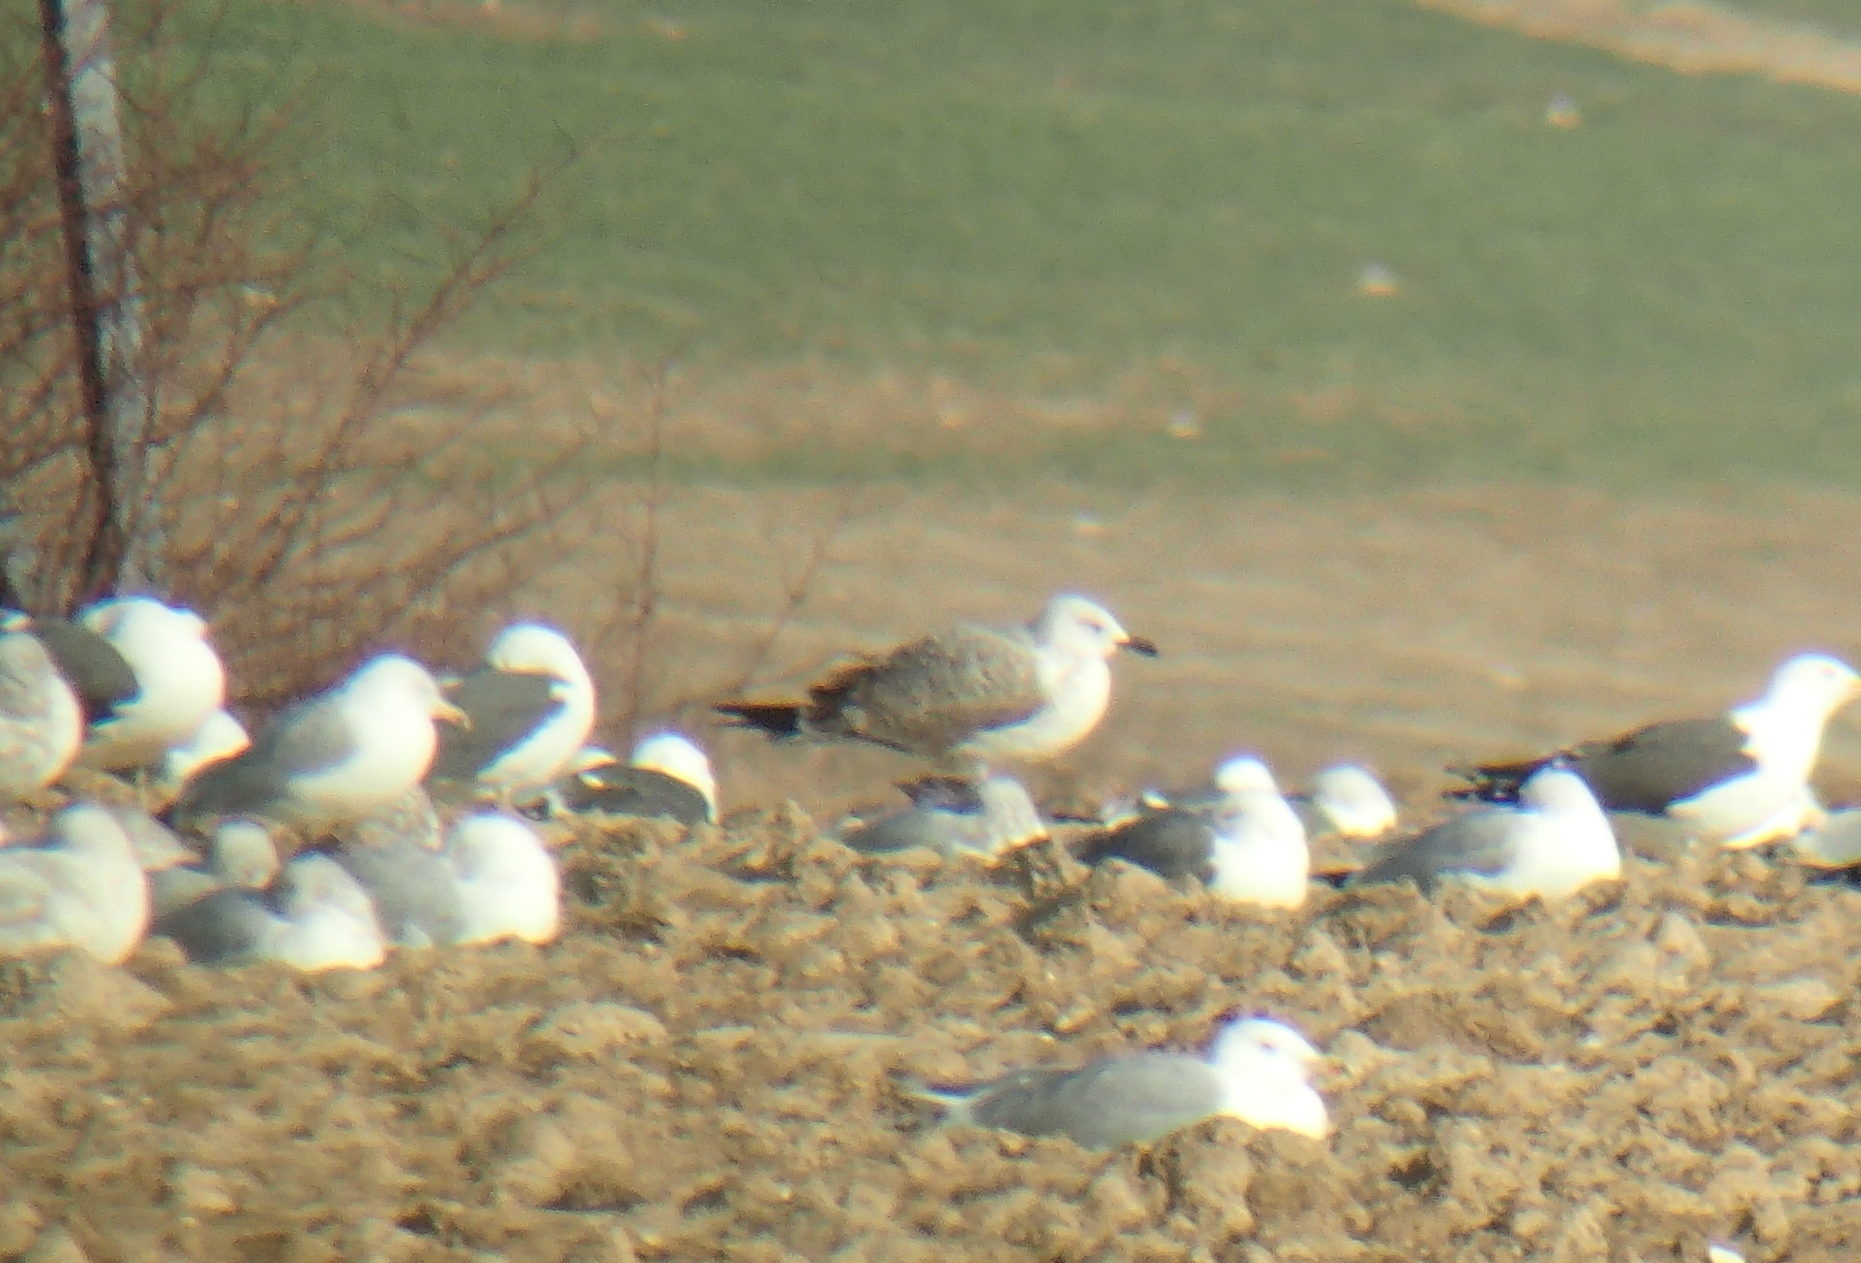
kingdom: Animalia
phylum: Chordata
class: Aves
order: Charadriiformes
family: Laridae
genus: Larus
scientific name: Larus cachinnans
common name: Caspian gull
